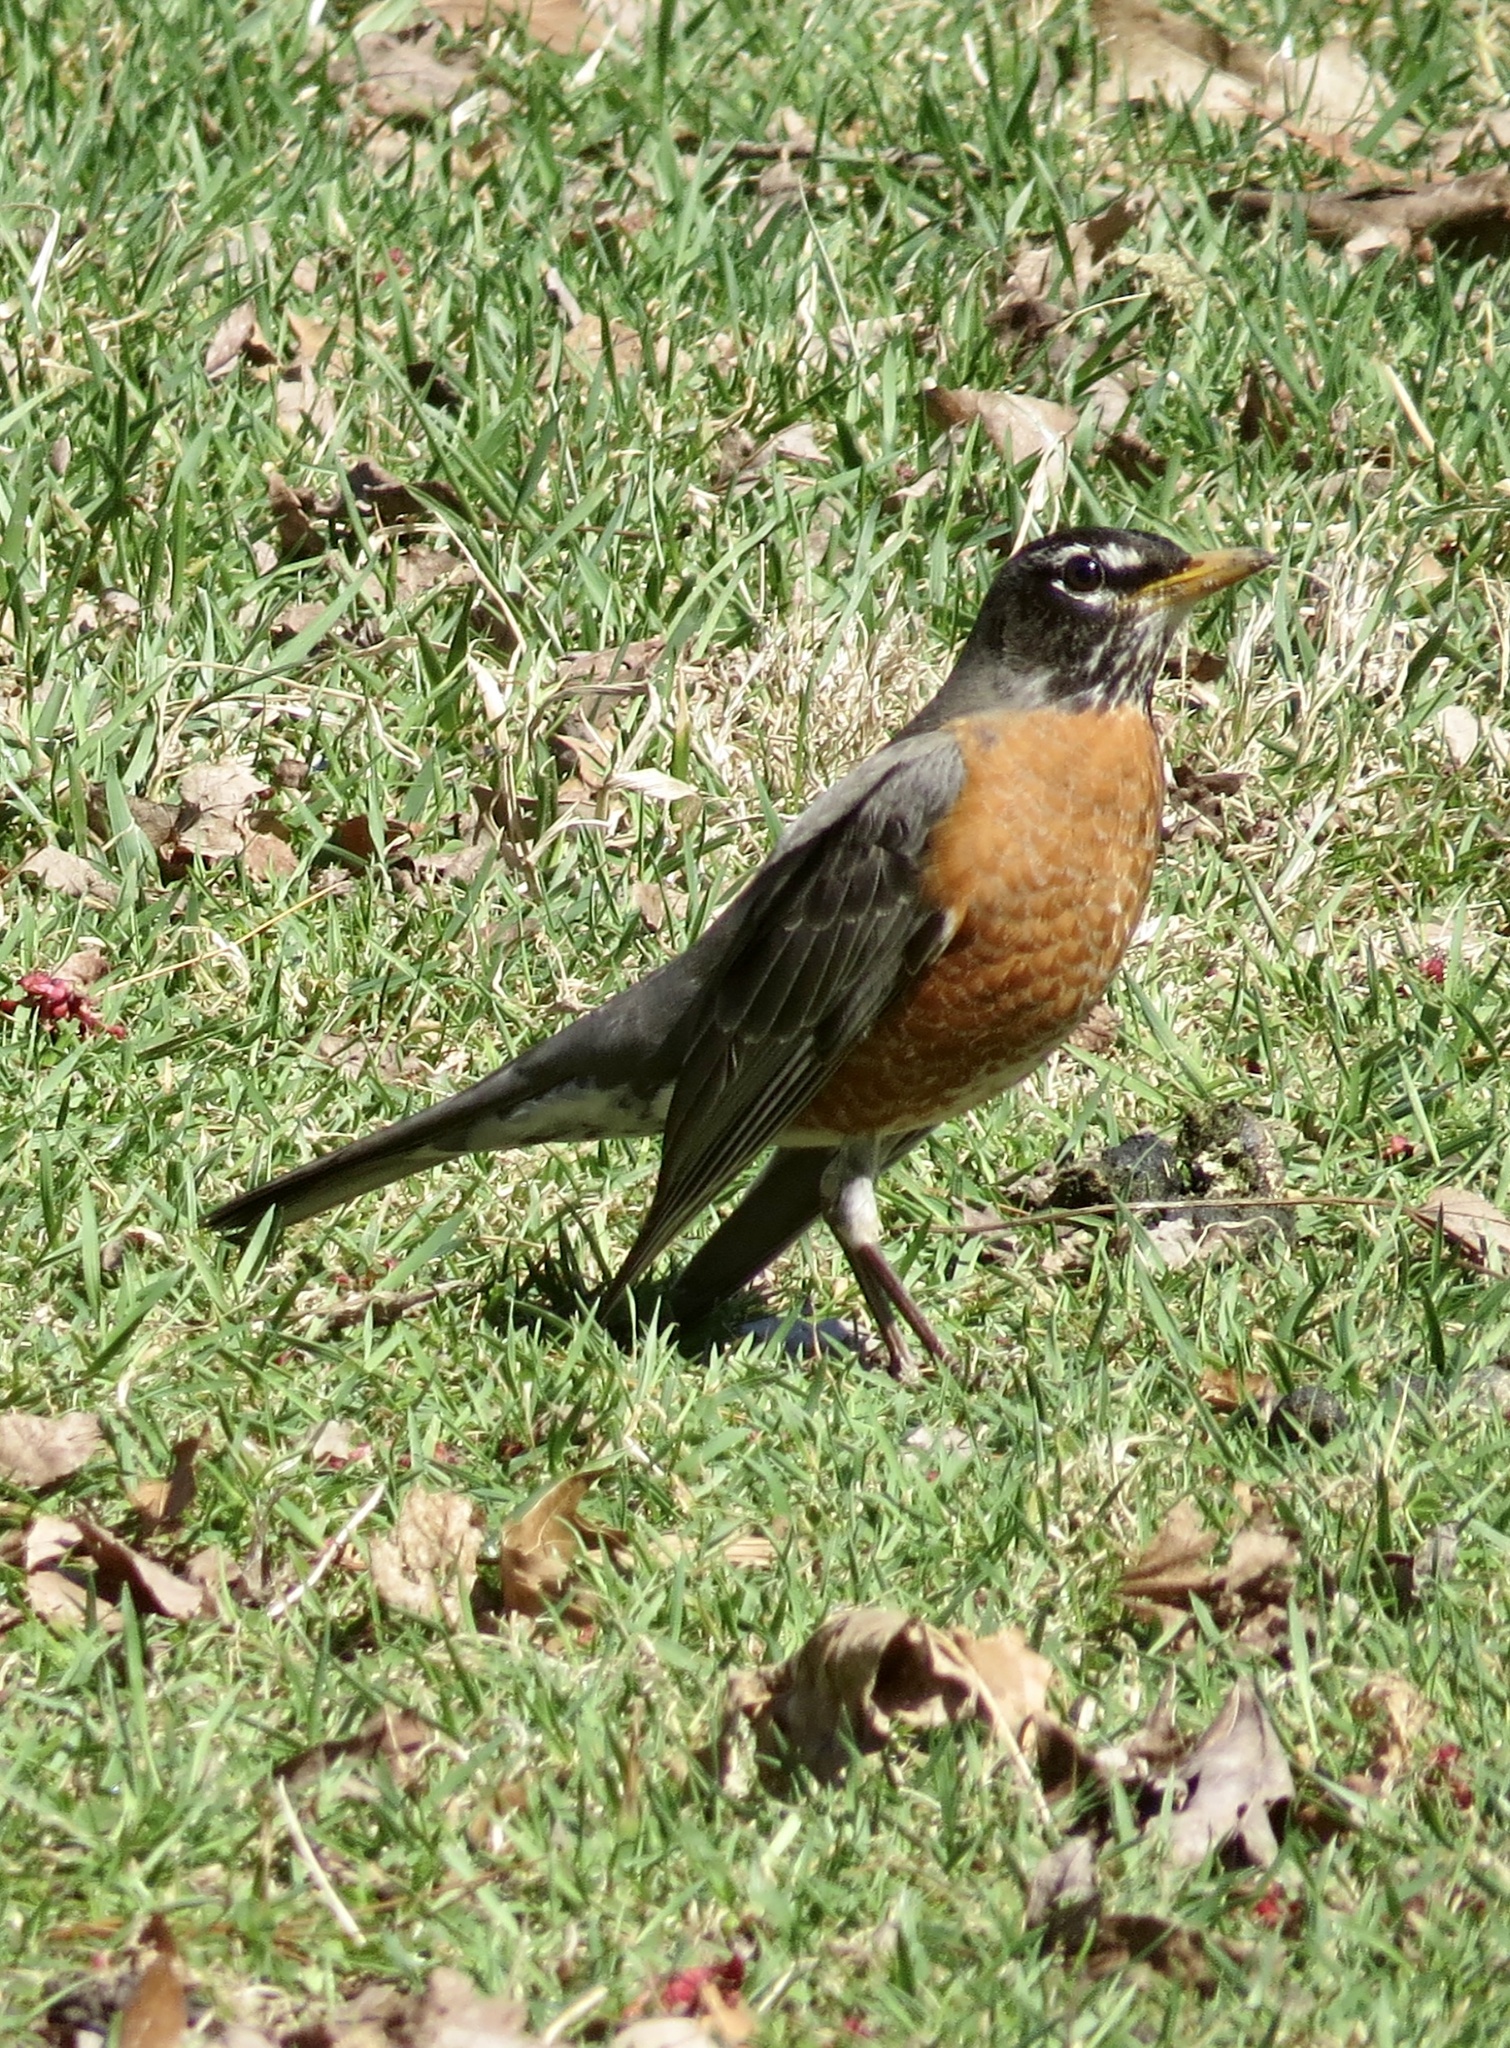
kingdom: Animalia
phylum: Chordata
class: Aves
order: Passeriformes
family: Turdidae
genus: Turdus
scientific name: Turdus migratorius
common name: American robin
